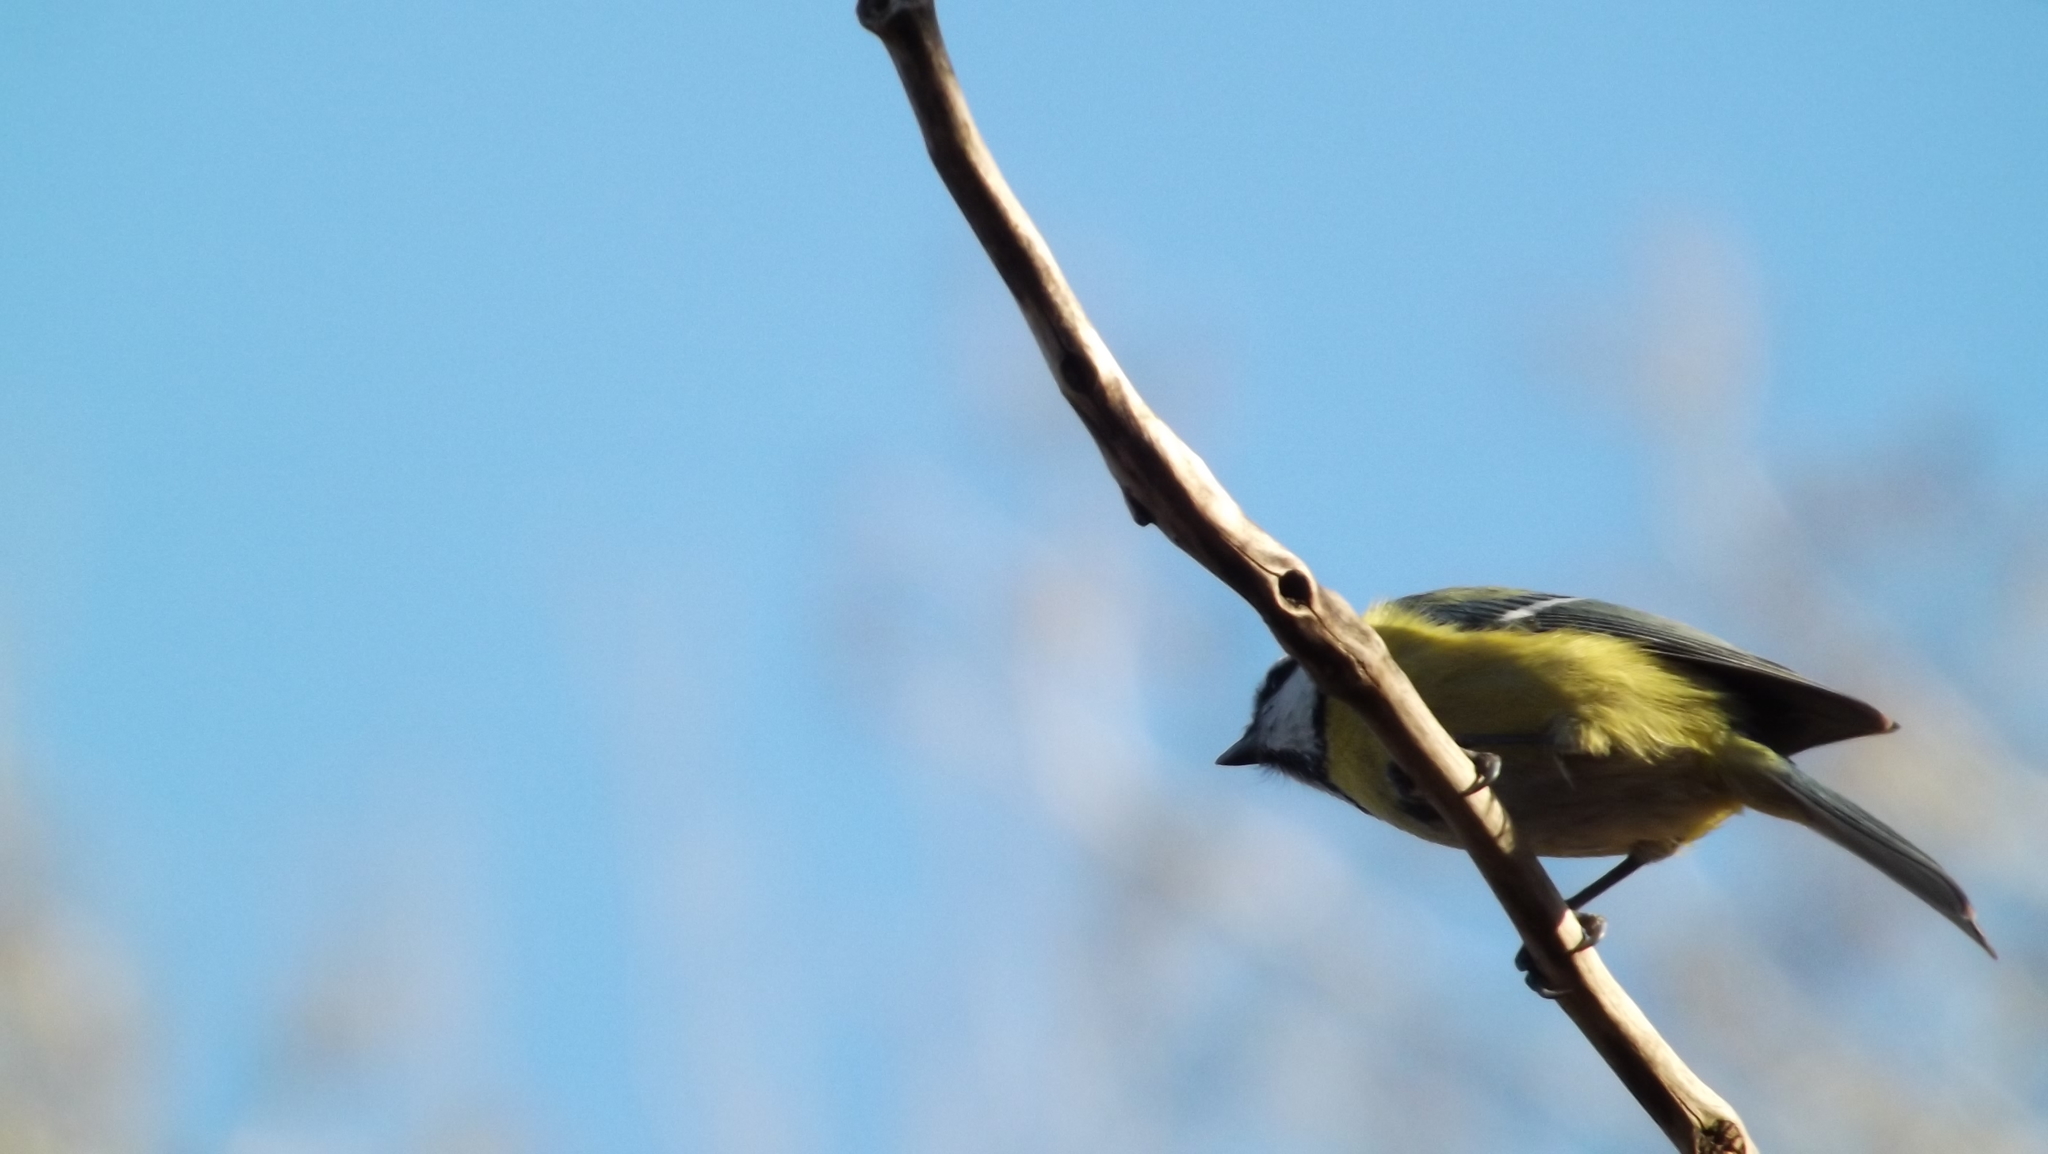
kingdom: Animalia
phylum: Chordata
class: Aves
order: Passeriformes
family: Paridae
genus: Cyanistes
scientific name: Cyanistes caeruleus
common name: Eurasian blue tit
